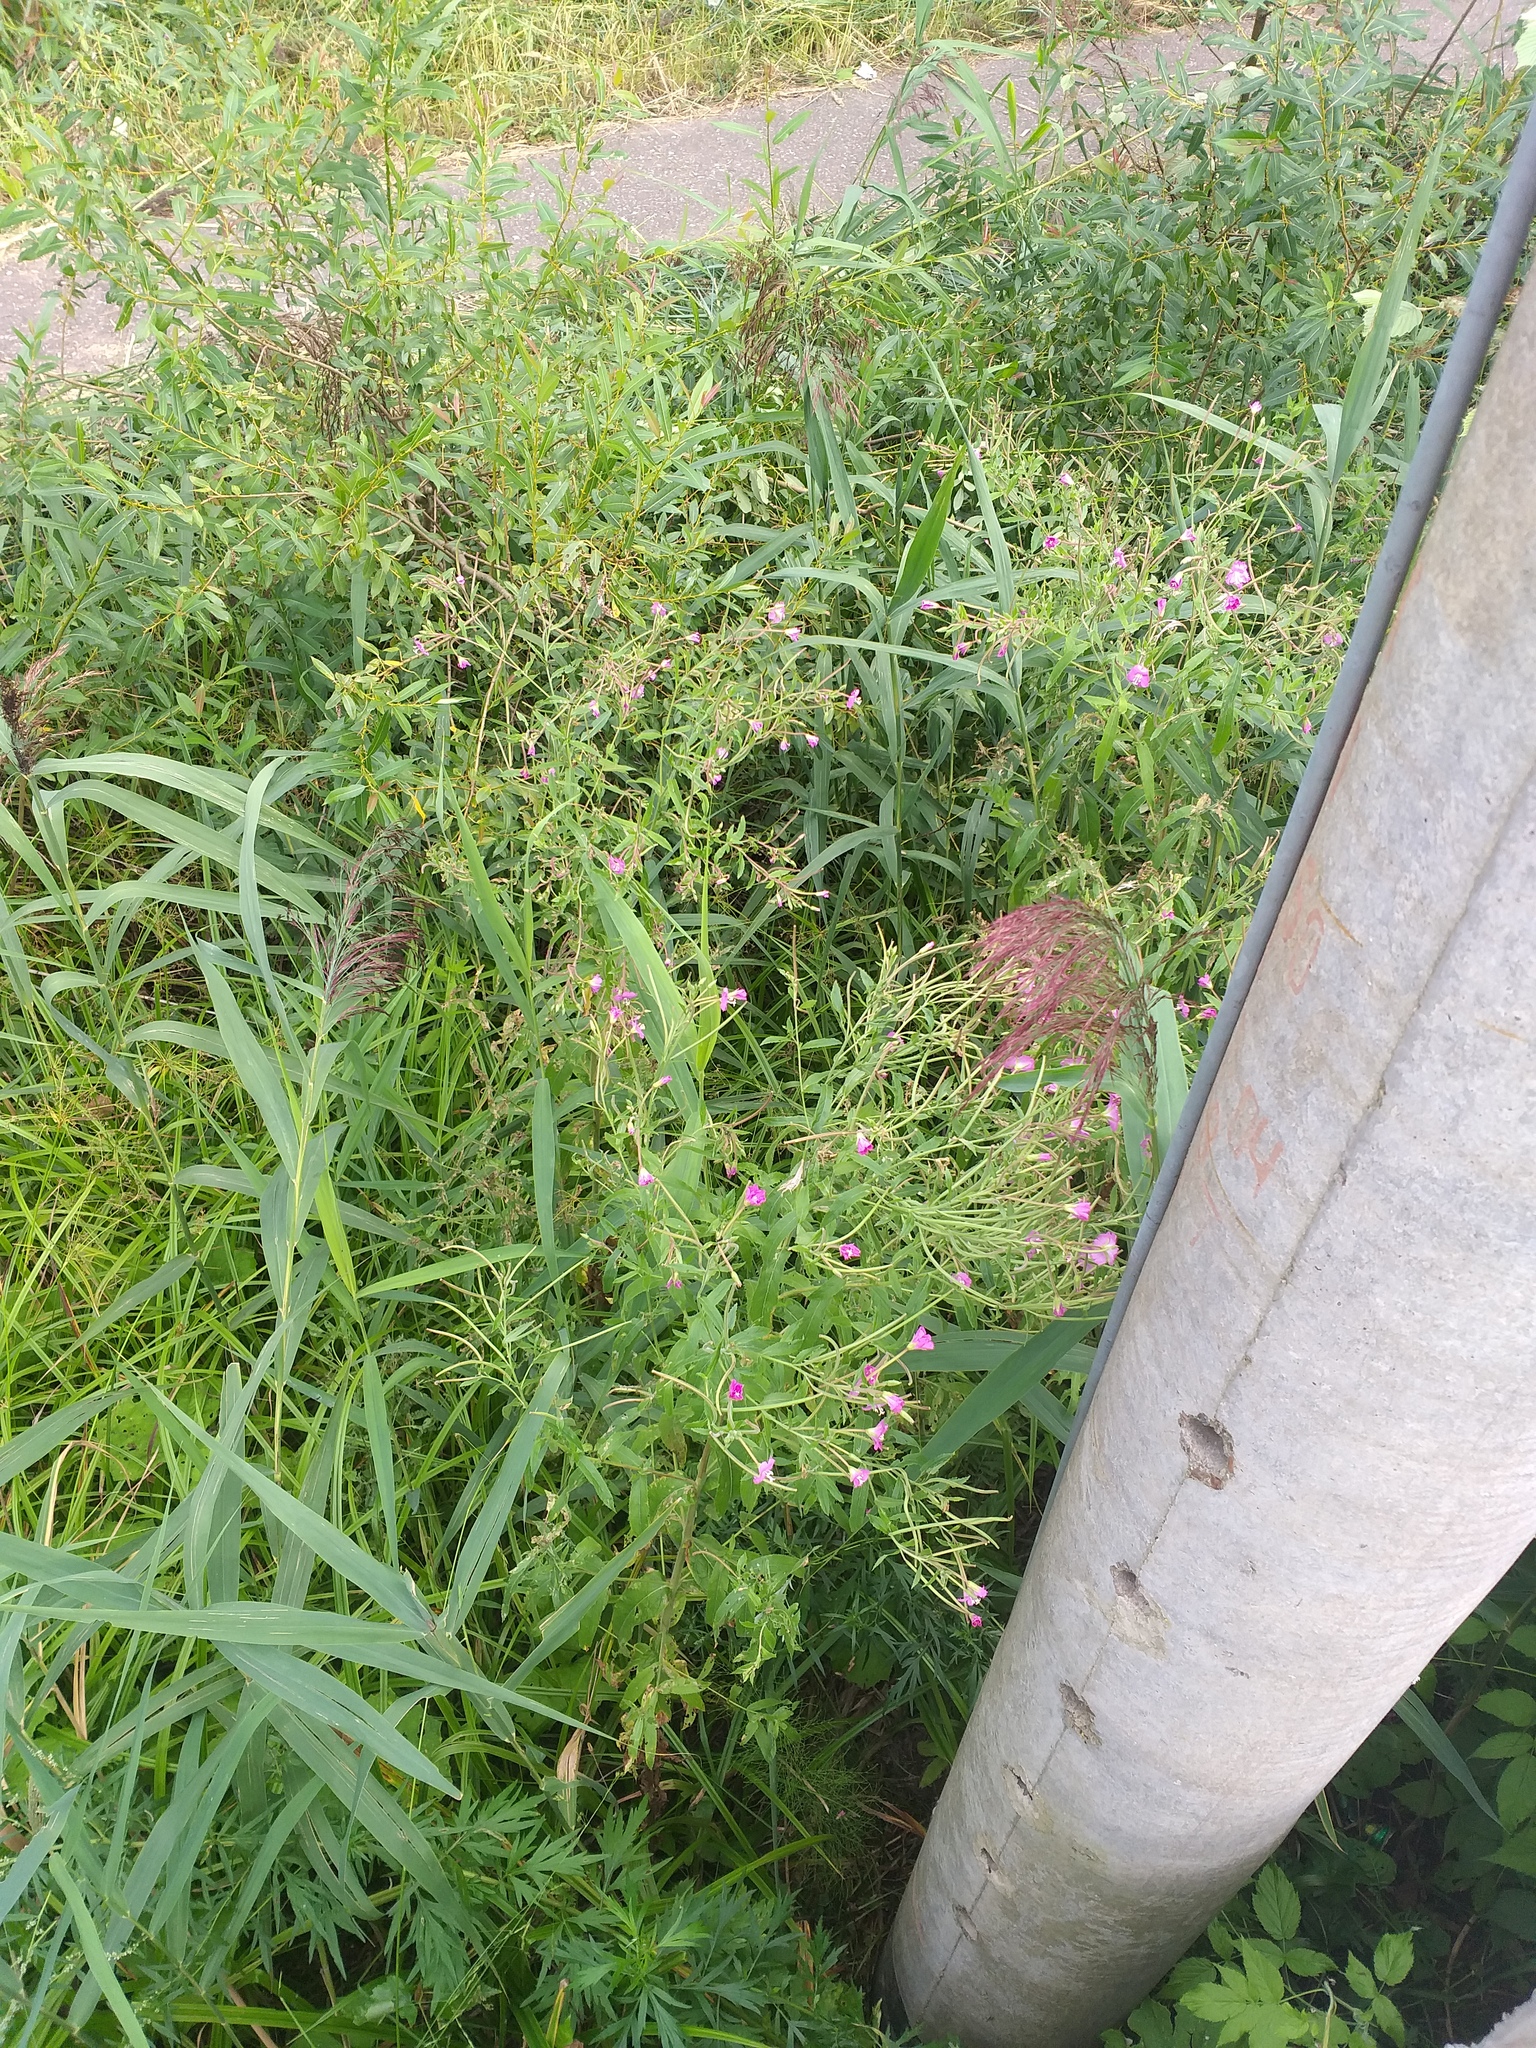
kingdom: Plantae
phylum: Tracheophyta
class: Magnoliopsida
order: Myrtales
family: Onagraceae
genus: Epilobium
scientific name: Epilobium hirsutum
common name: Great willowherb
